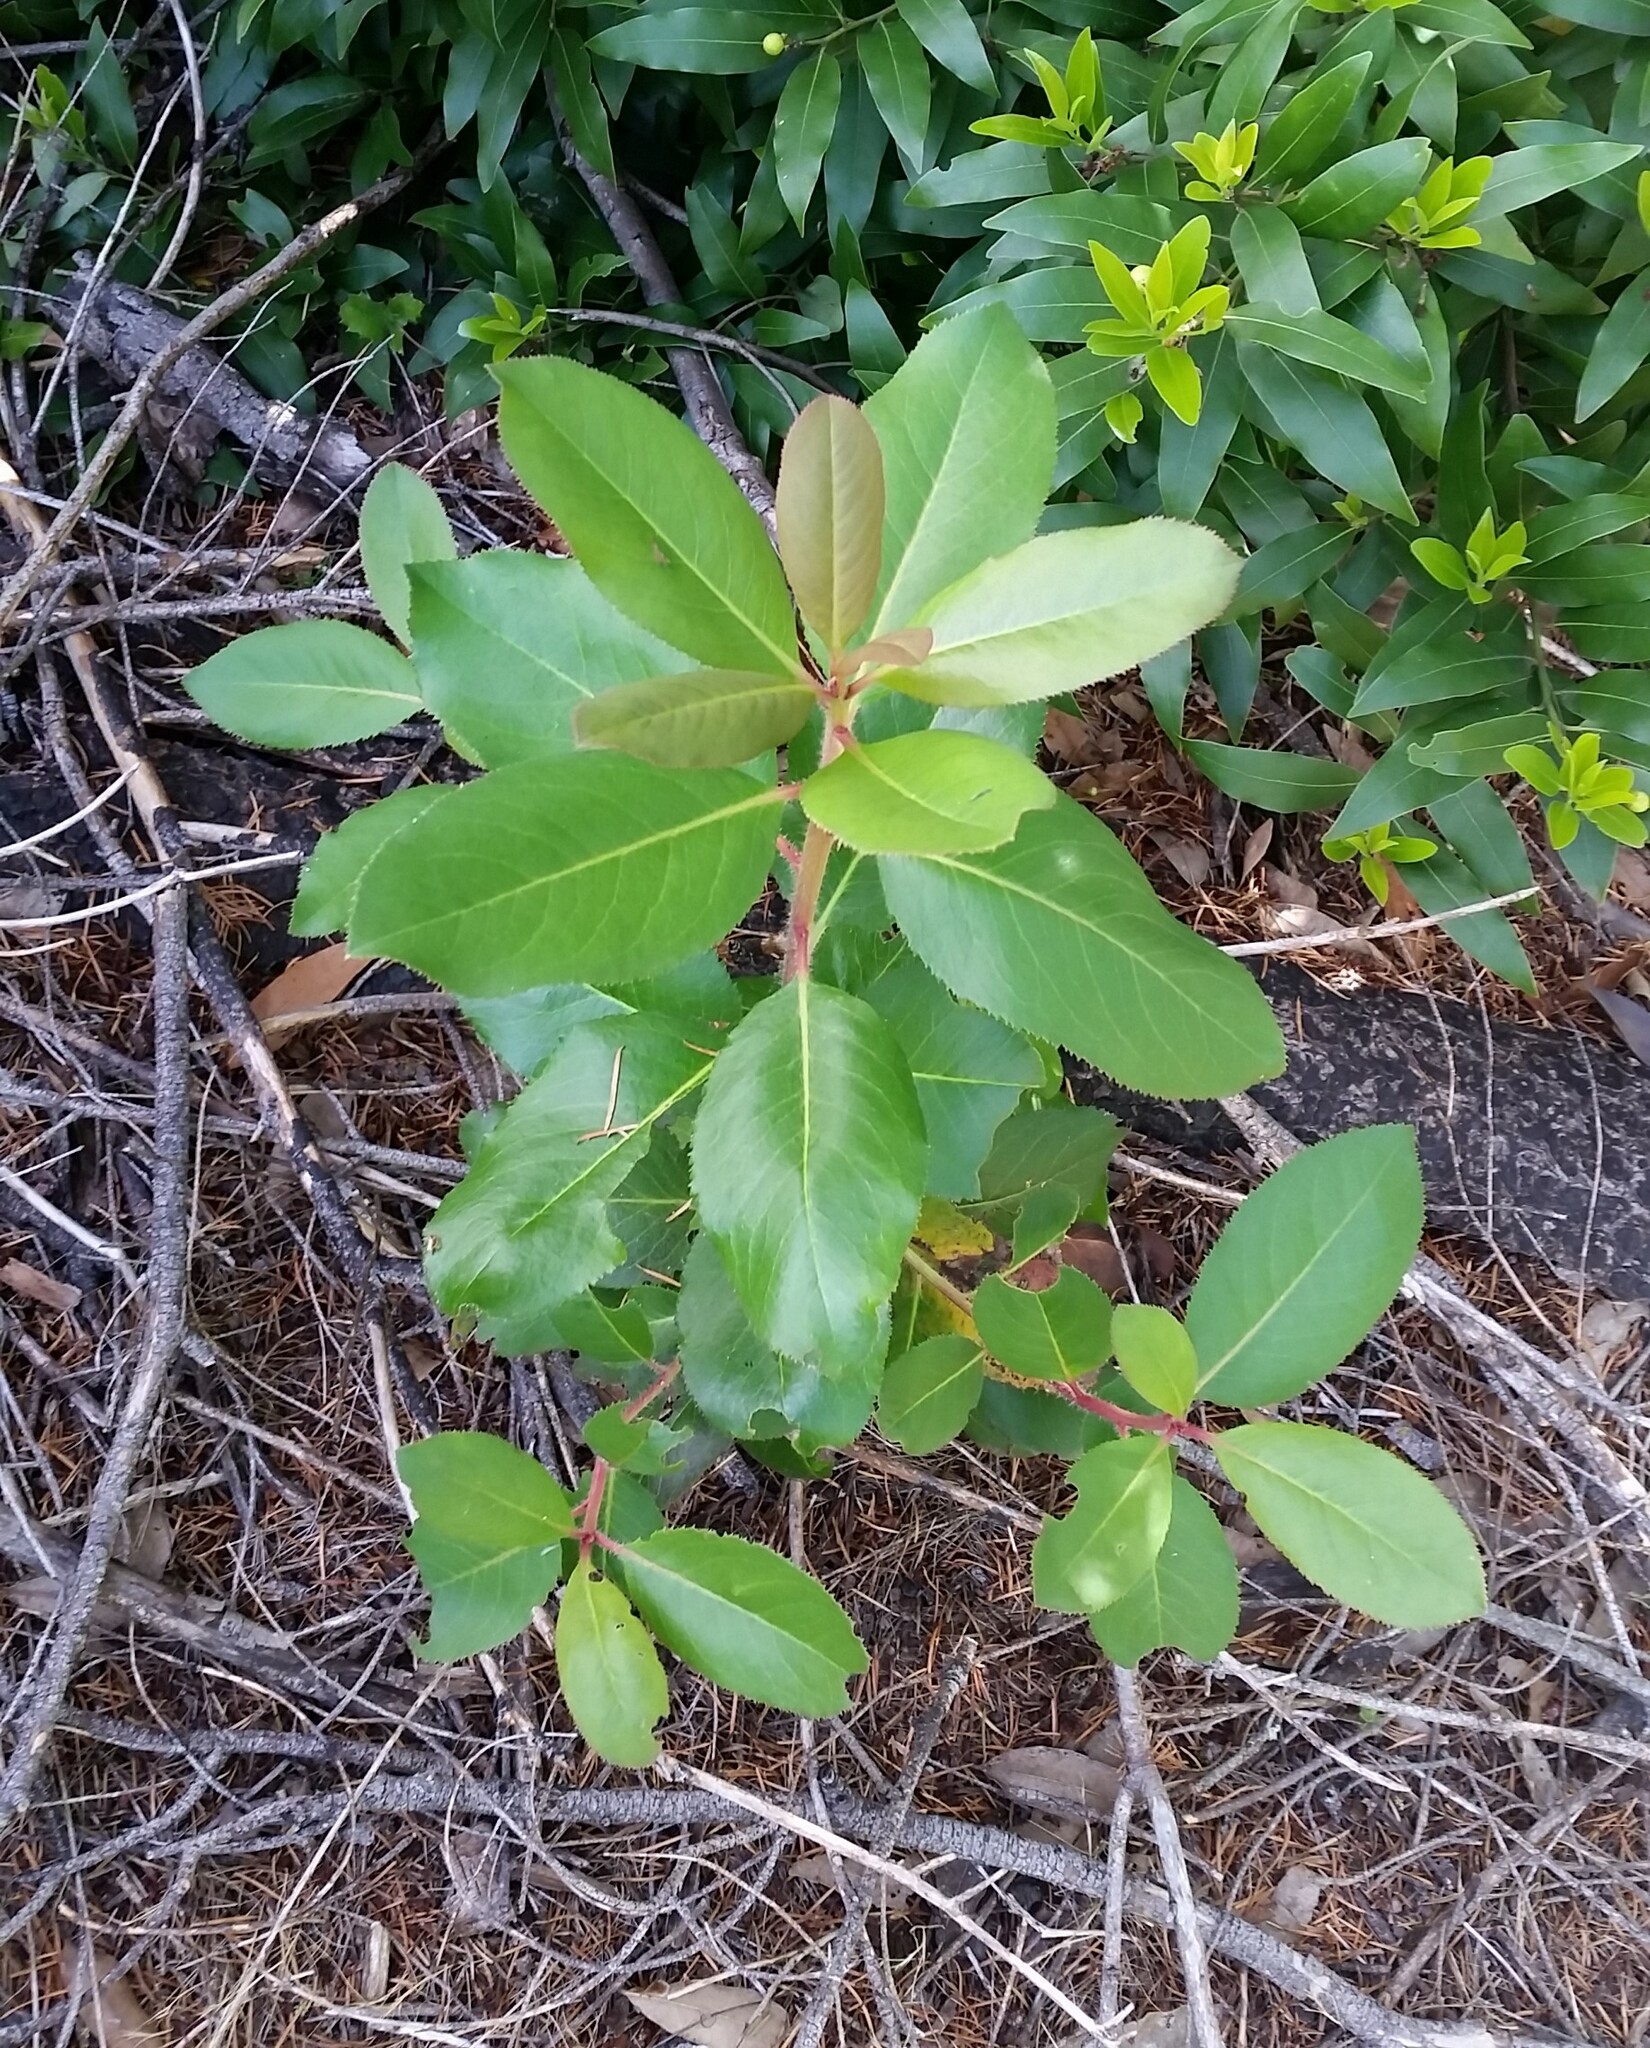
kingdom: Plantae
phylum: Tracheophyta
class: Magnoliopsida
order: Ericales
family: Ericaceae
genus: Arbutus
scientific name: Arbutus menziesii
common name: Pacific madrone
